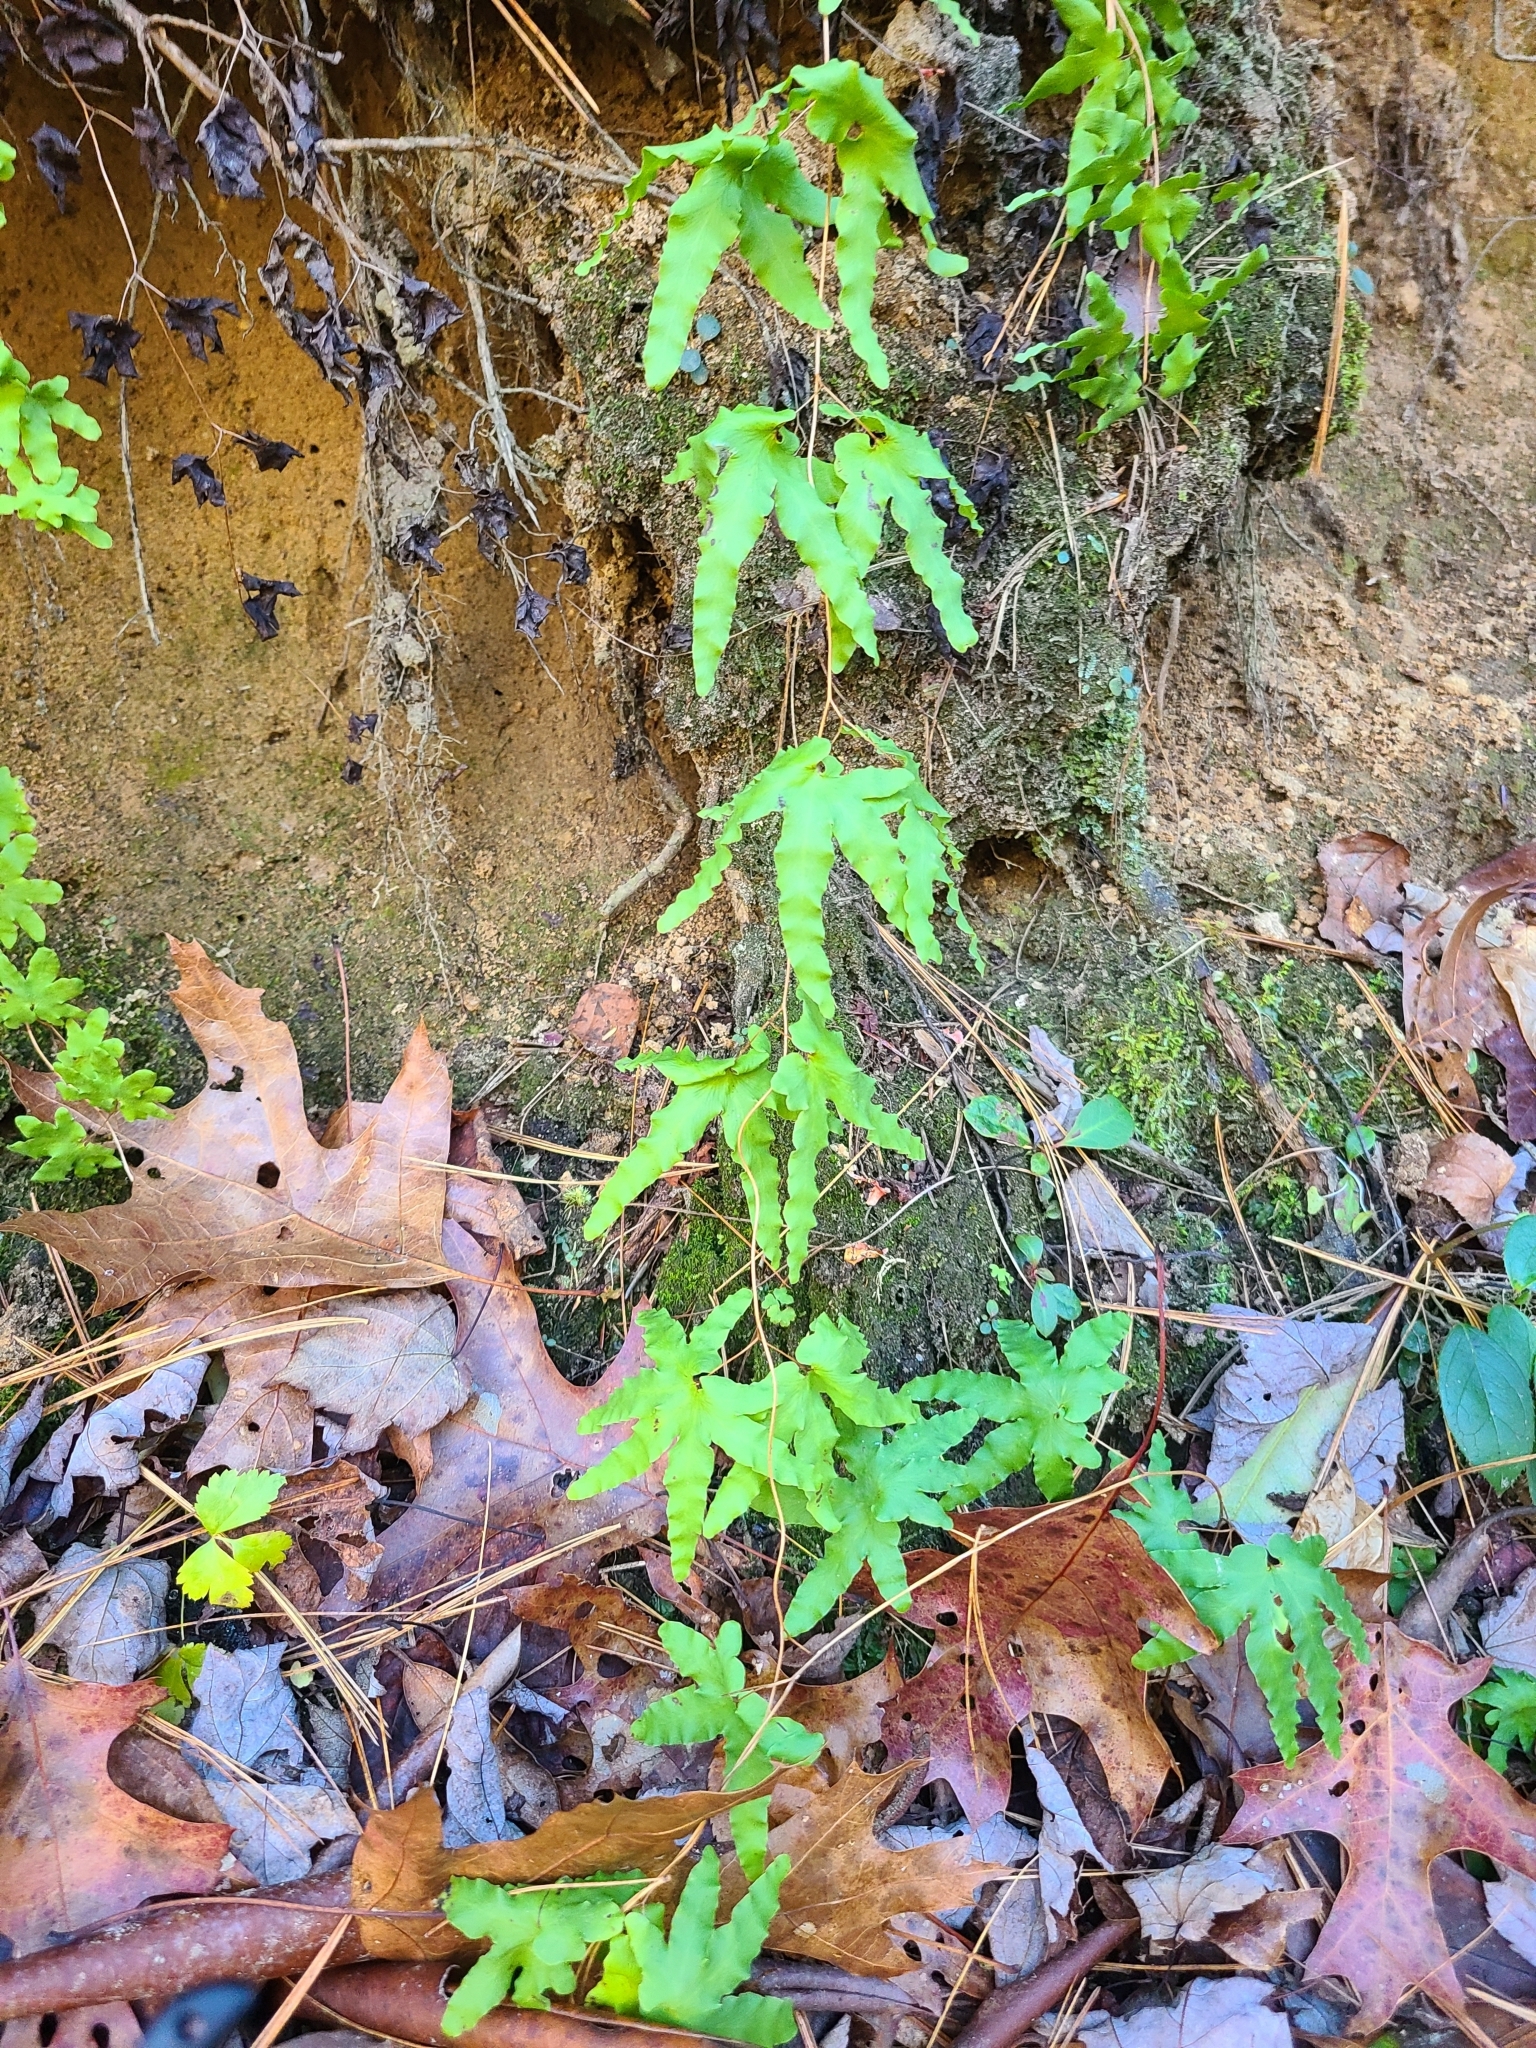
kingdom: Plantae
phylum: Tracheophyta
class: Polypodiopsida
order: Schizaeales
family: Lygodiaceae
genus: Lygodium
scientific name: Lygodium palmatum
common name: American climbing fern
